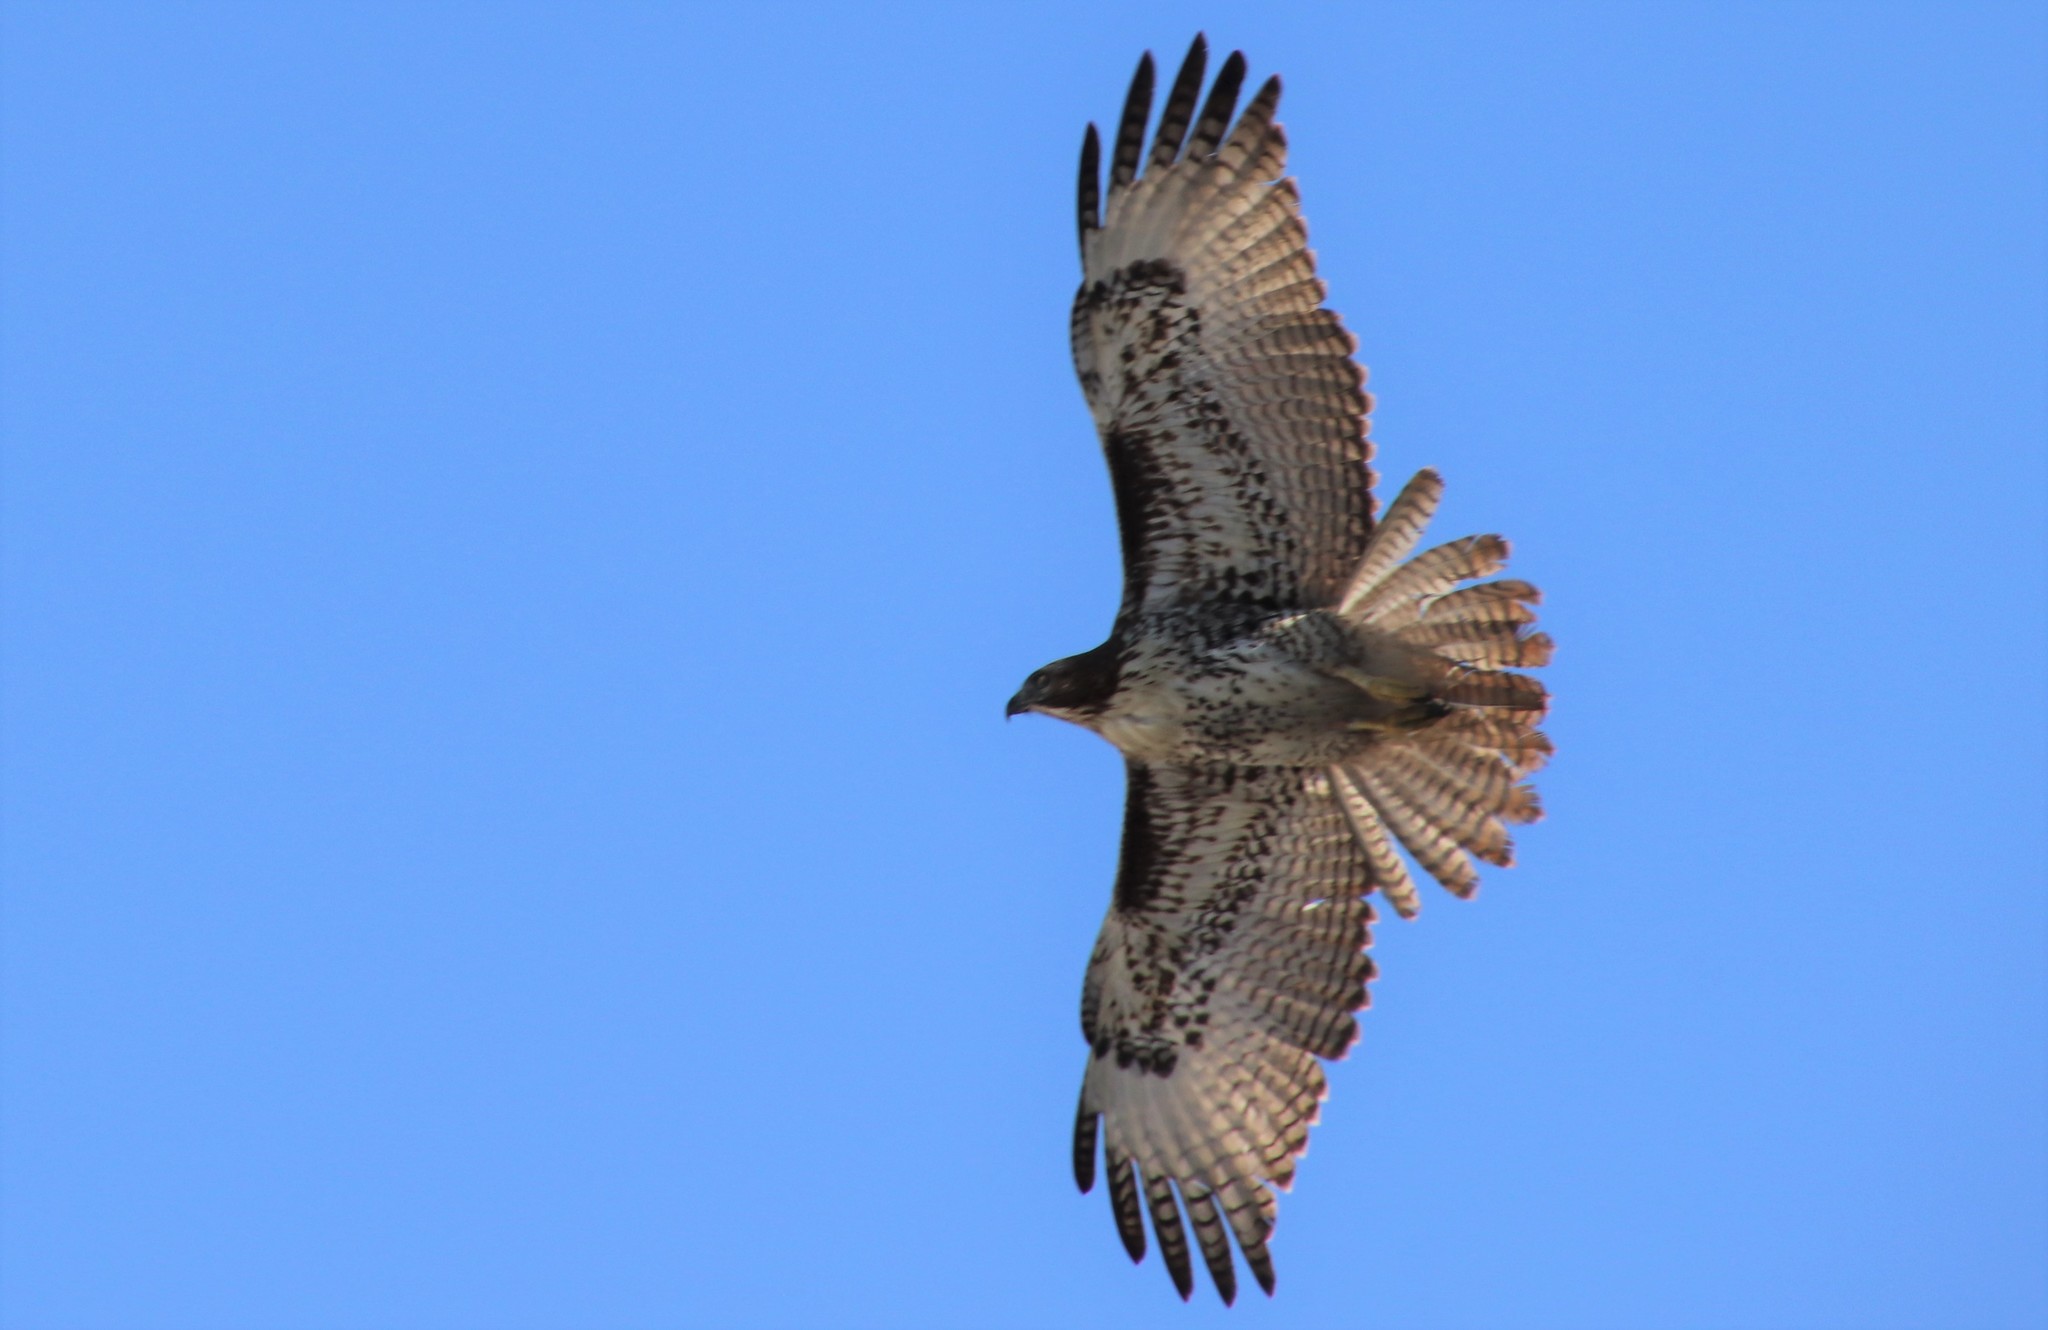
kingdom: Animalia
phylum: Chordata
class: Aves
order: Accipitriformes
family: Accipitridae
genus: Buteo
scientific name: Buteo jamaicensis
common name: Red-tailed hawk
